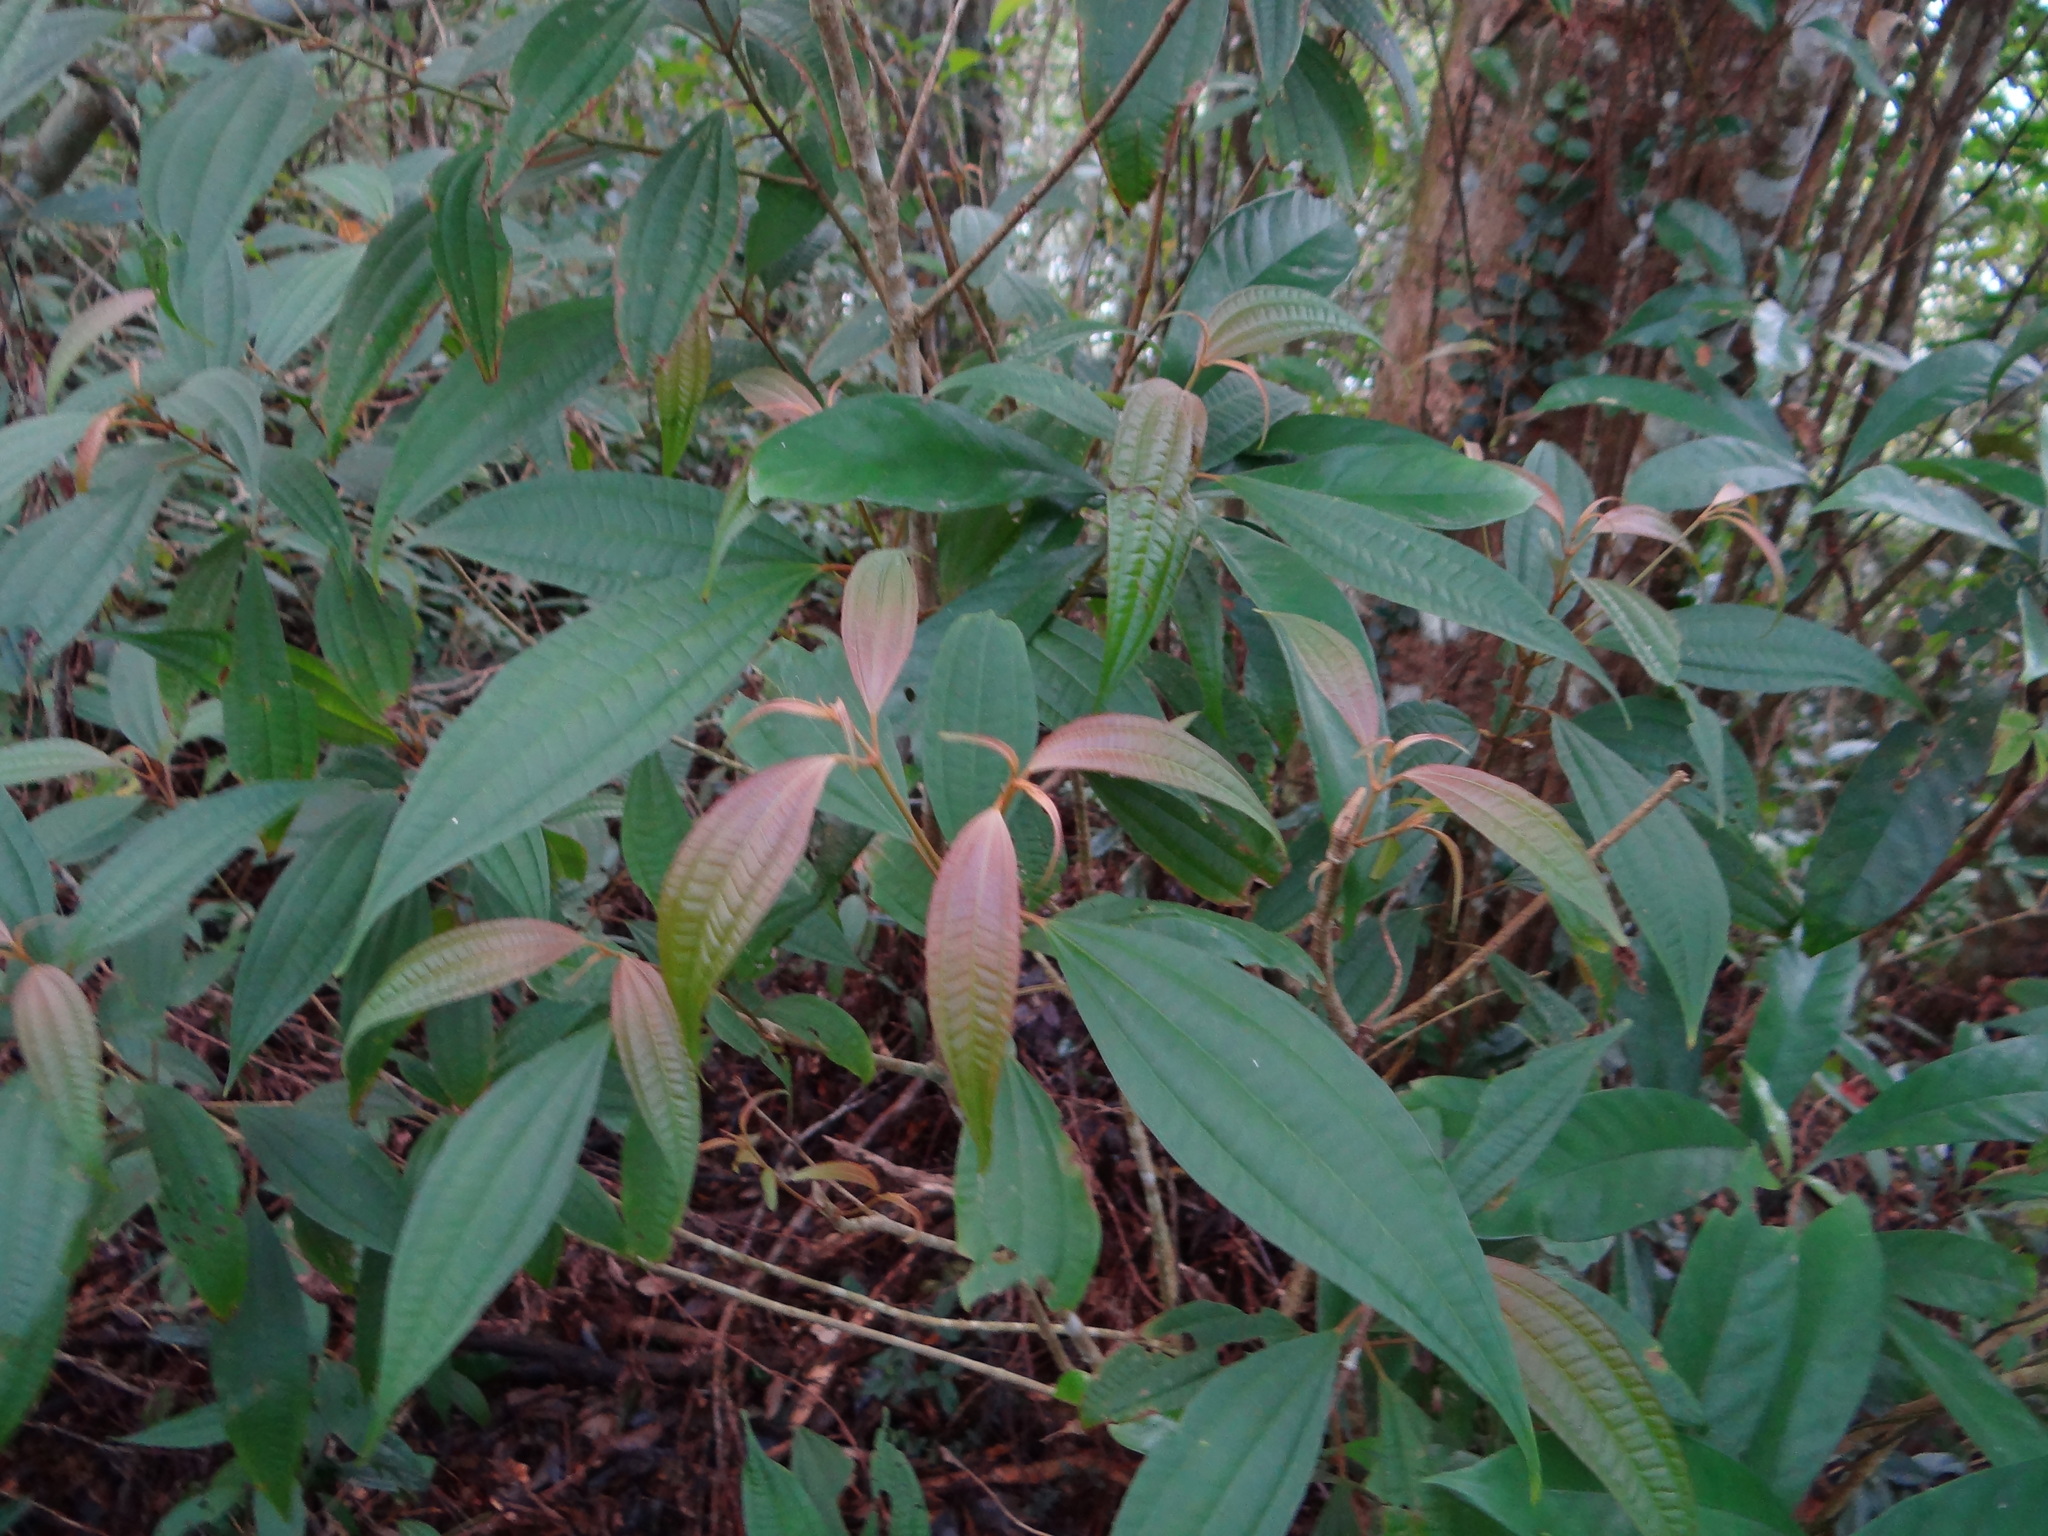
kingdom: Plantae
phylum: Tracheophyta
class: Magnoliopsida
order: Myrtales
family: Melastomataceae
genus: Blastus
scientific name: Blastus cochinchinensis
